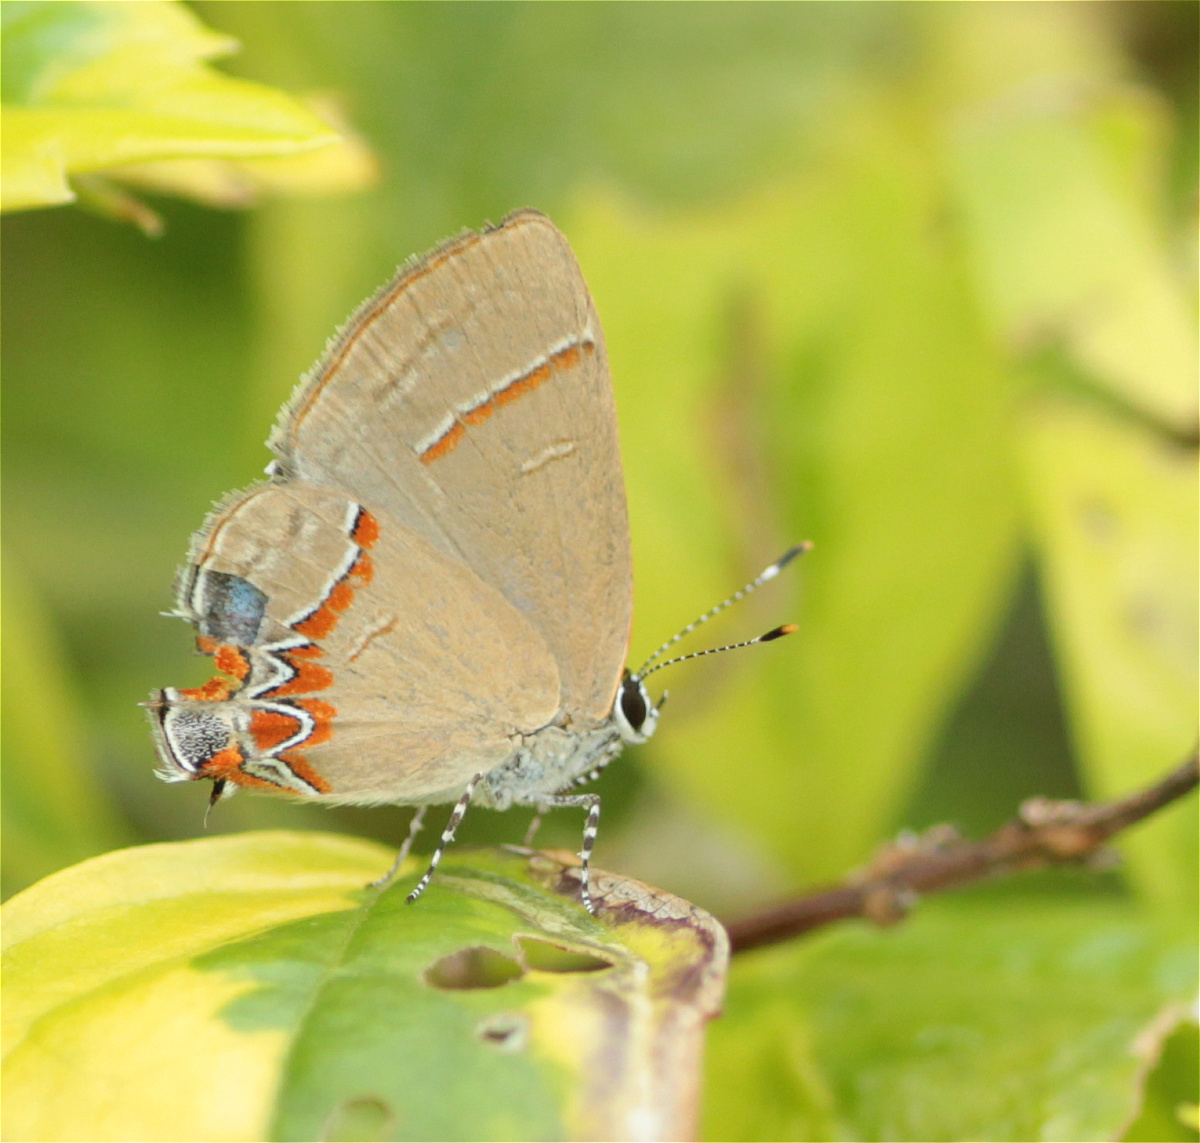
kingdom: Animalia
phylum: Arthropoda
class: Insecta
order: Lepidoptera
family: Lycaenidae
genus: Calycopis
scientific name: Calycopis isobeon
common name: Dusky-blue groundstreak
